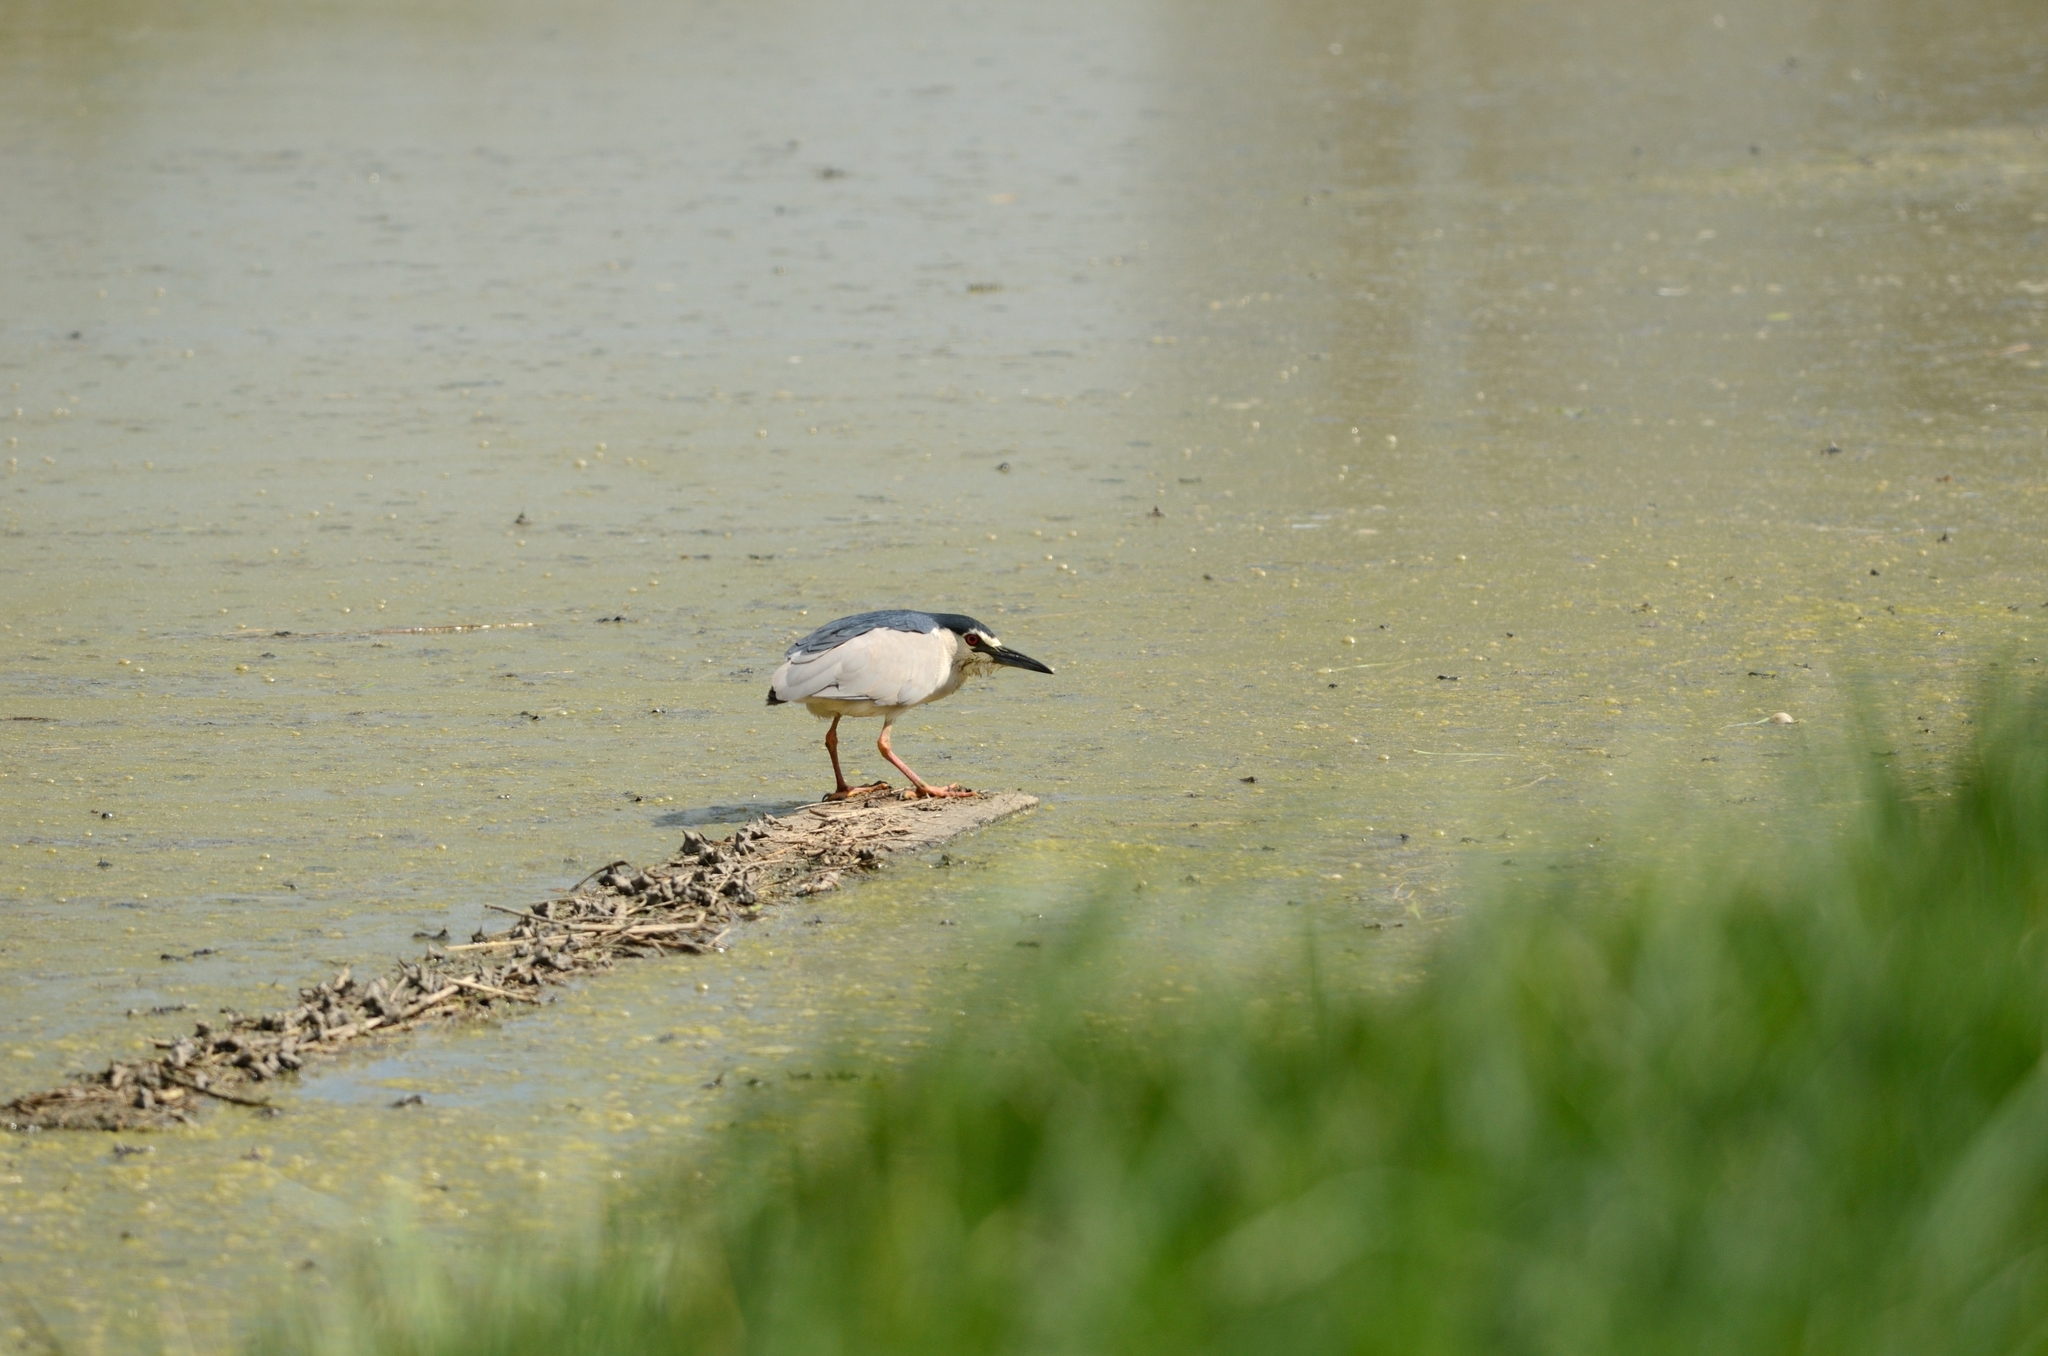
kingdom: Animalia
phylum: Chordata
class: Aves
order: Pelecaniformes
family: Ardeidae
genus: Nycticorax
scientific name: Nycticorax nycticorax
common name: Black-crowned night heron
